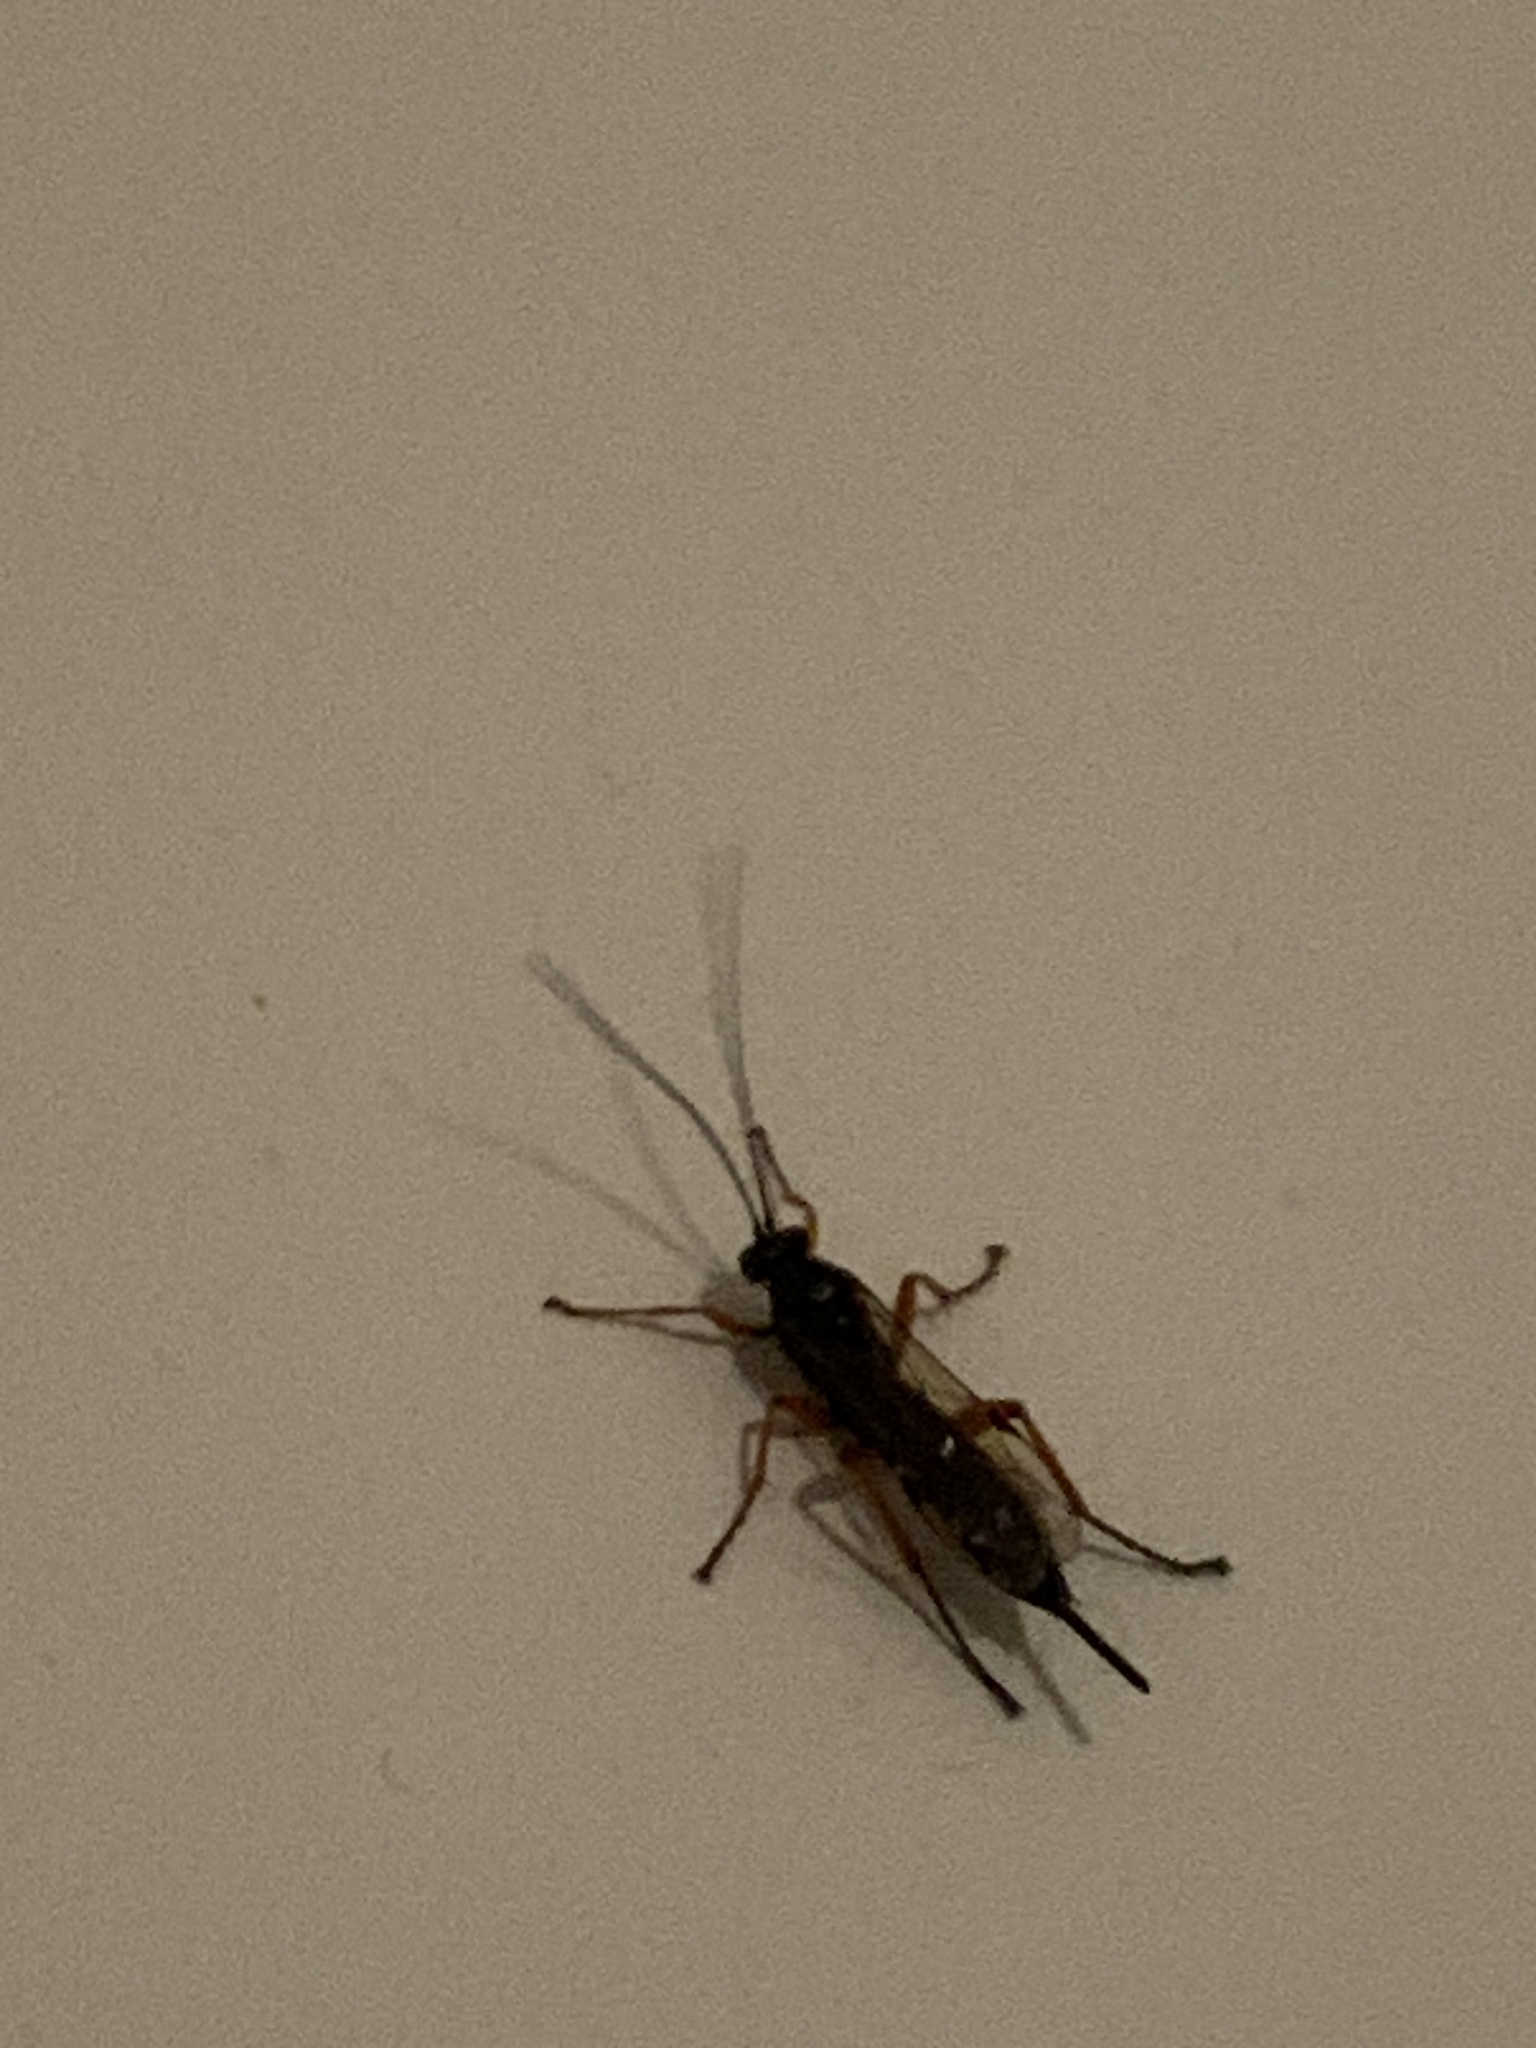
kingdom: Animalia
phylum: Arthropoda
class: Insecta
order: Hymenoptera
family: Ichneumonidae
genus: Pimpla
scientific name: Pimpla rufipes
